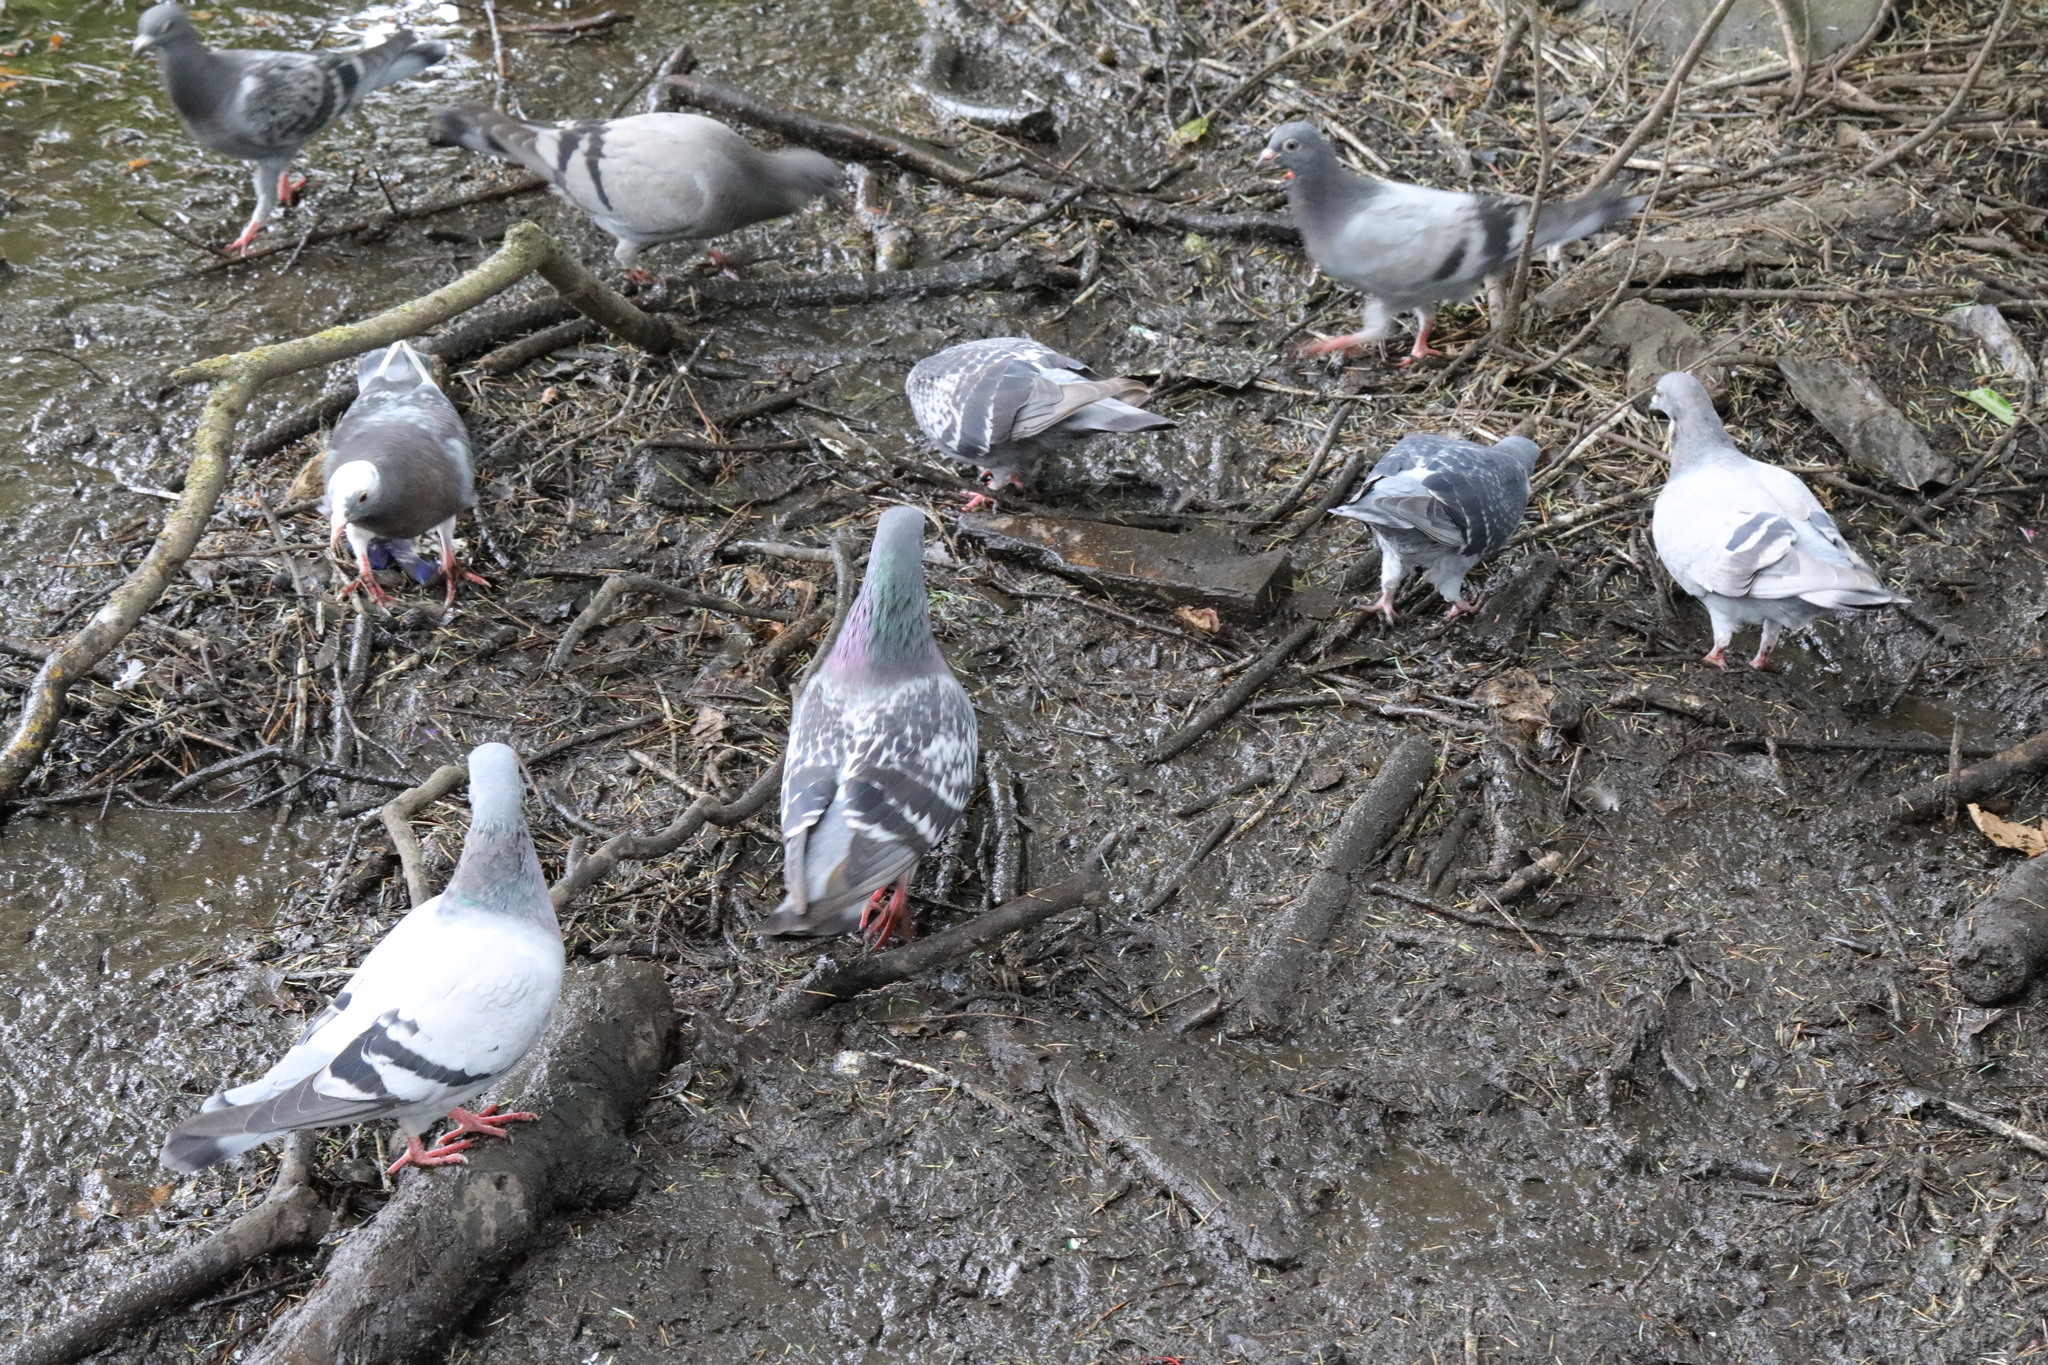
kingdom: Animalia
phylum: Chordata
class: Aves
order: Columbiformes
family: Columbidae
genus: Columba
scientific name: Columba livia
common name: Rock pigeon
